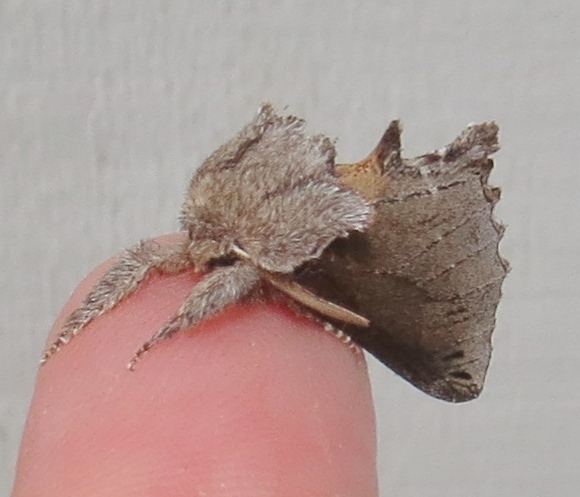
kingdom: Animalia
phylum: Arthropoda
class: Insecta
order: Lepidoptera
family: Notodontidae
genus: Pheosidea
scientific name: Pheosidea elegans
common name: Elegant prominent
